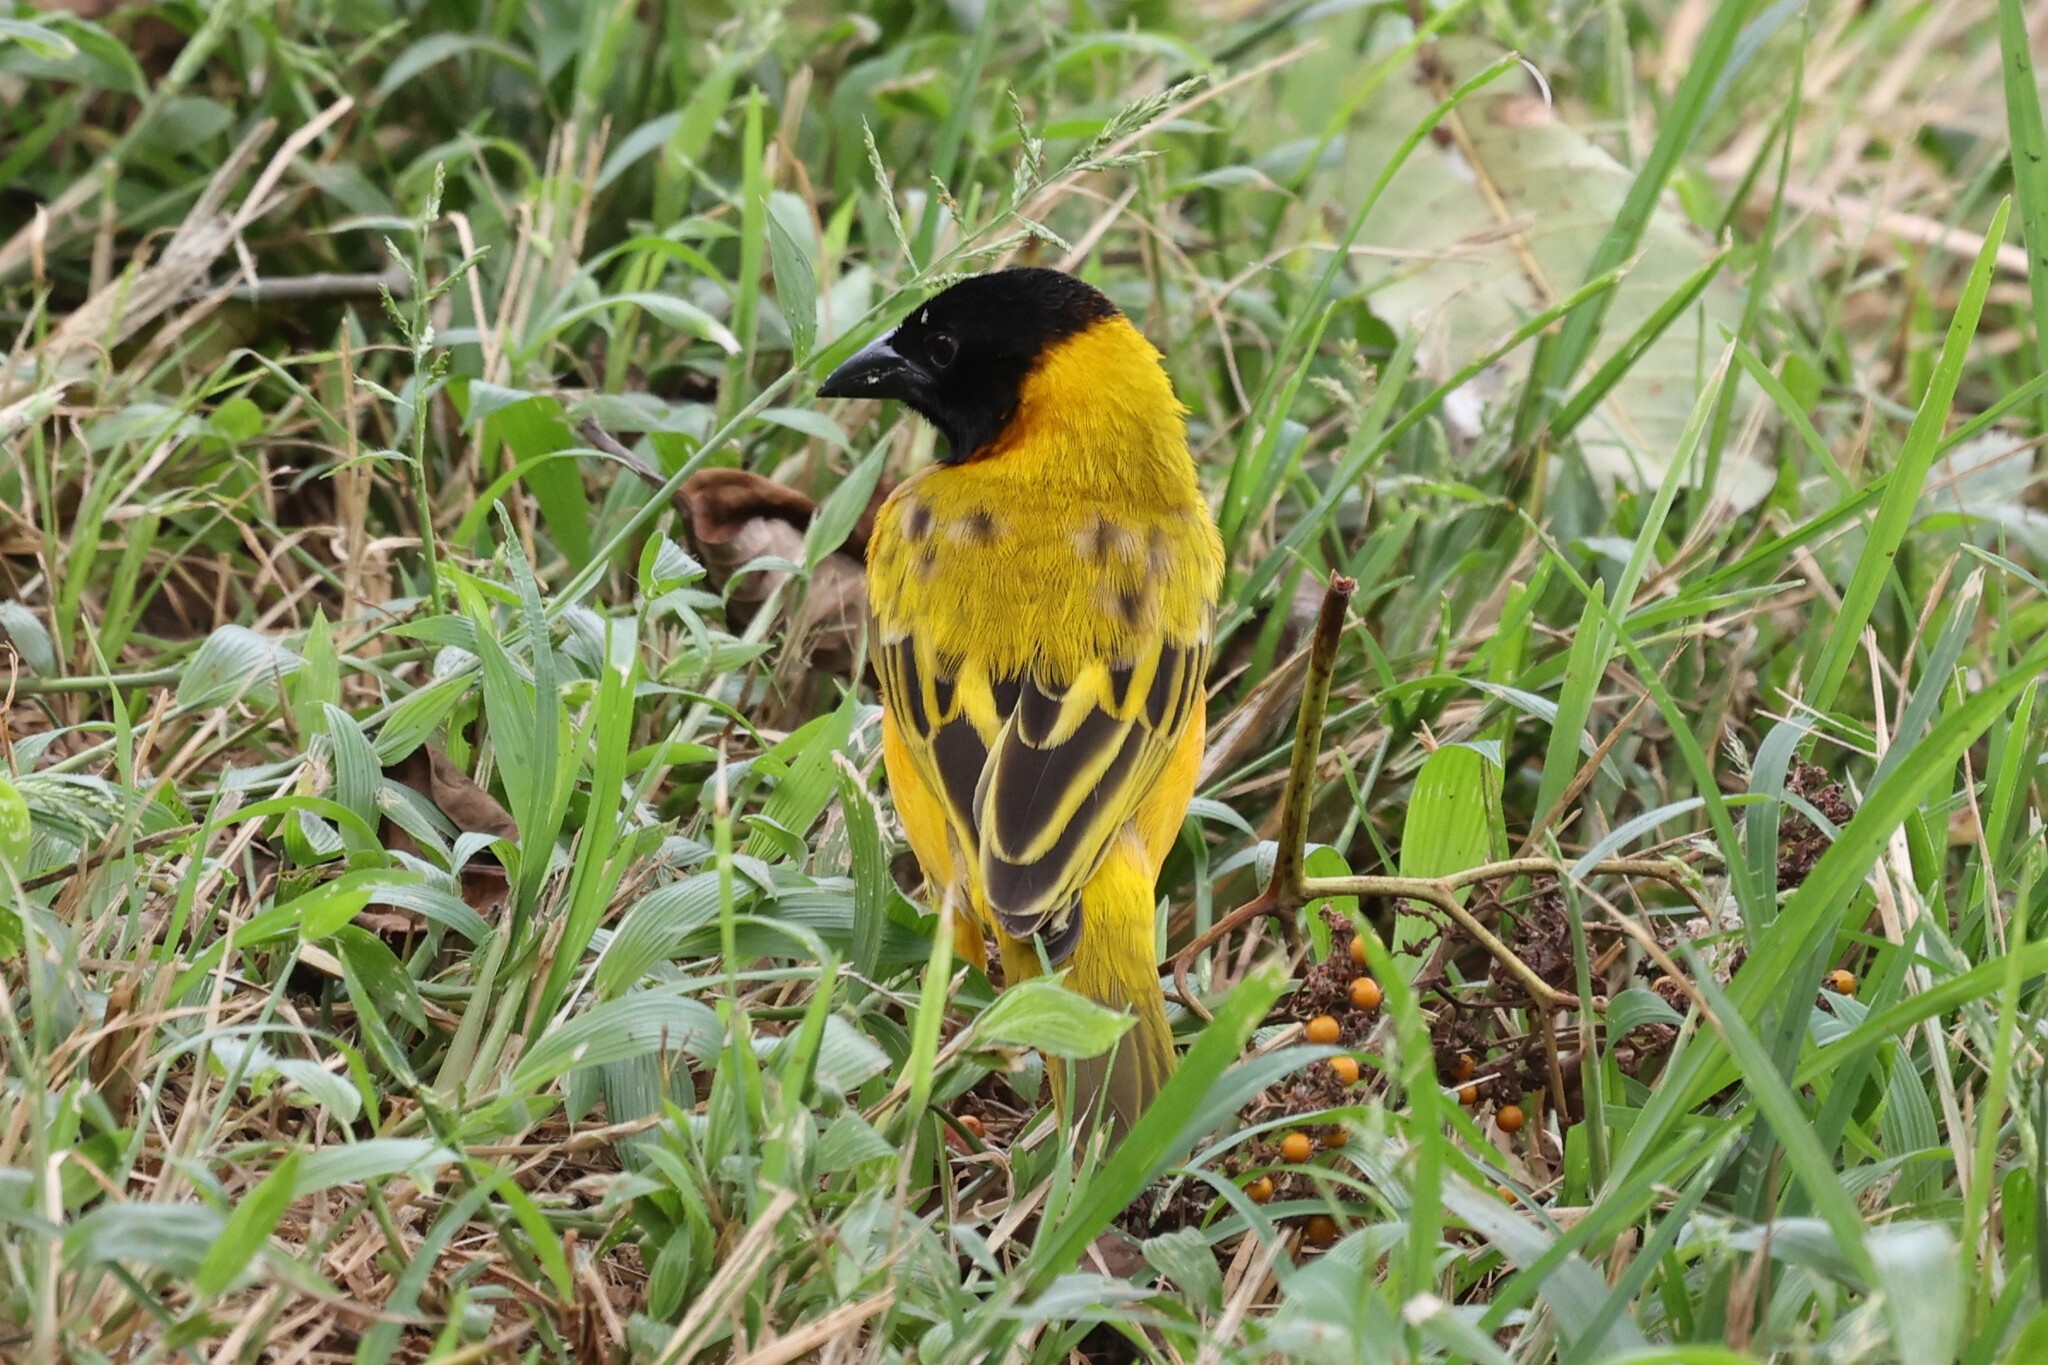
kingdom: Animalia
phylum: Chordata
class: Aves
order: Passeriformes
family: Ploceidae
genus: Ploceus
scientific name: Ploceus melanocephalus
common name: Black-headed weaver
